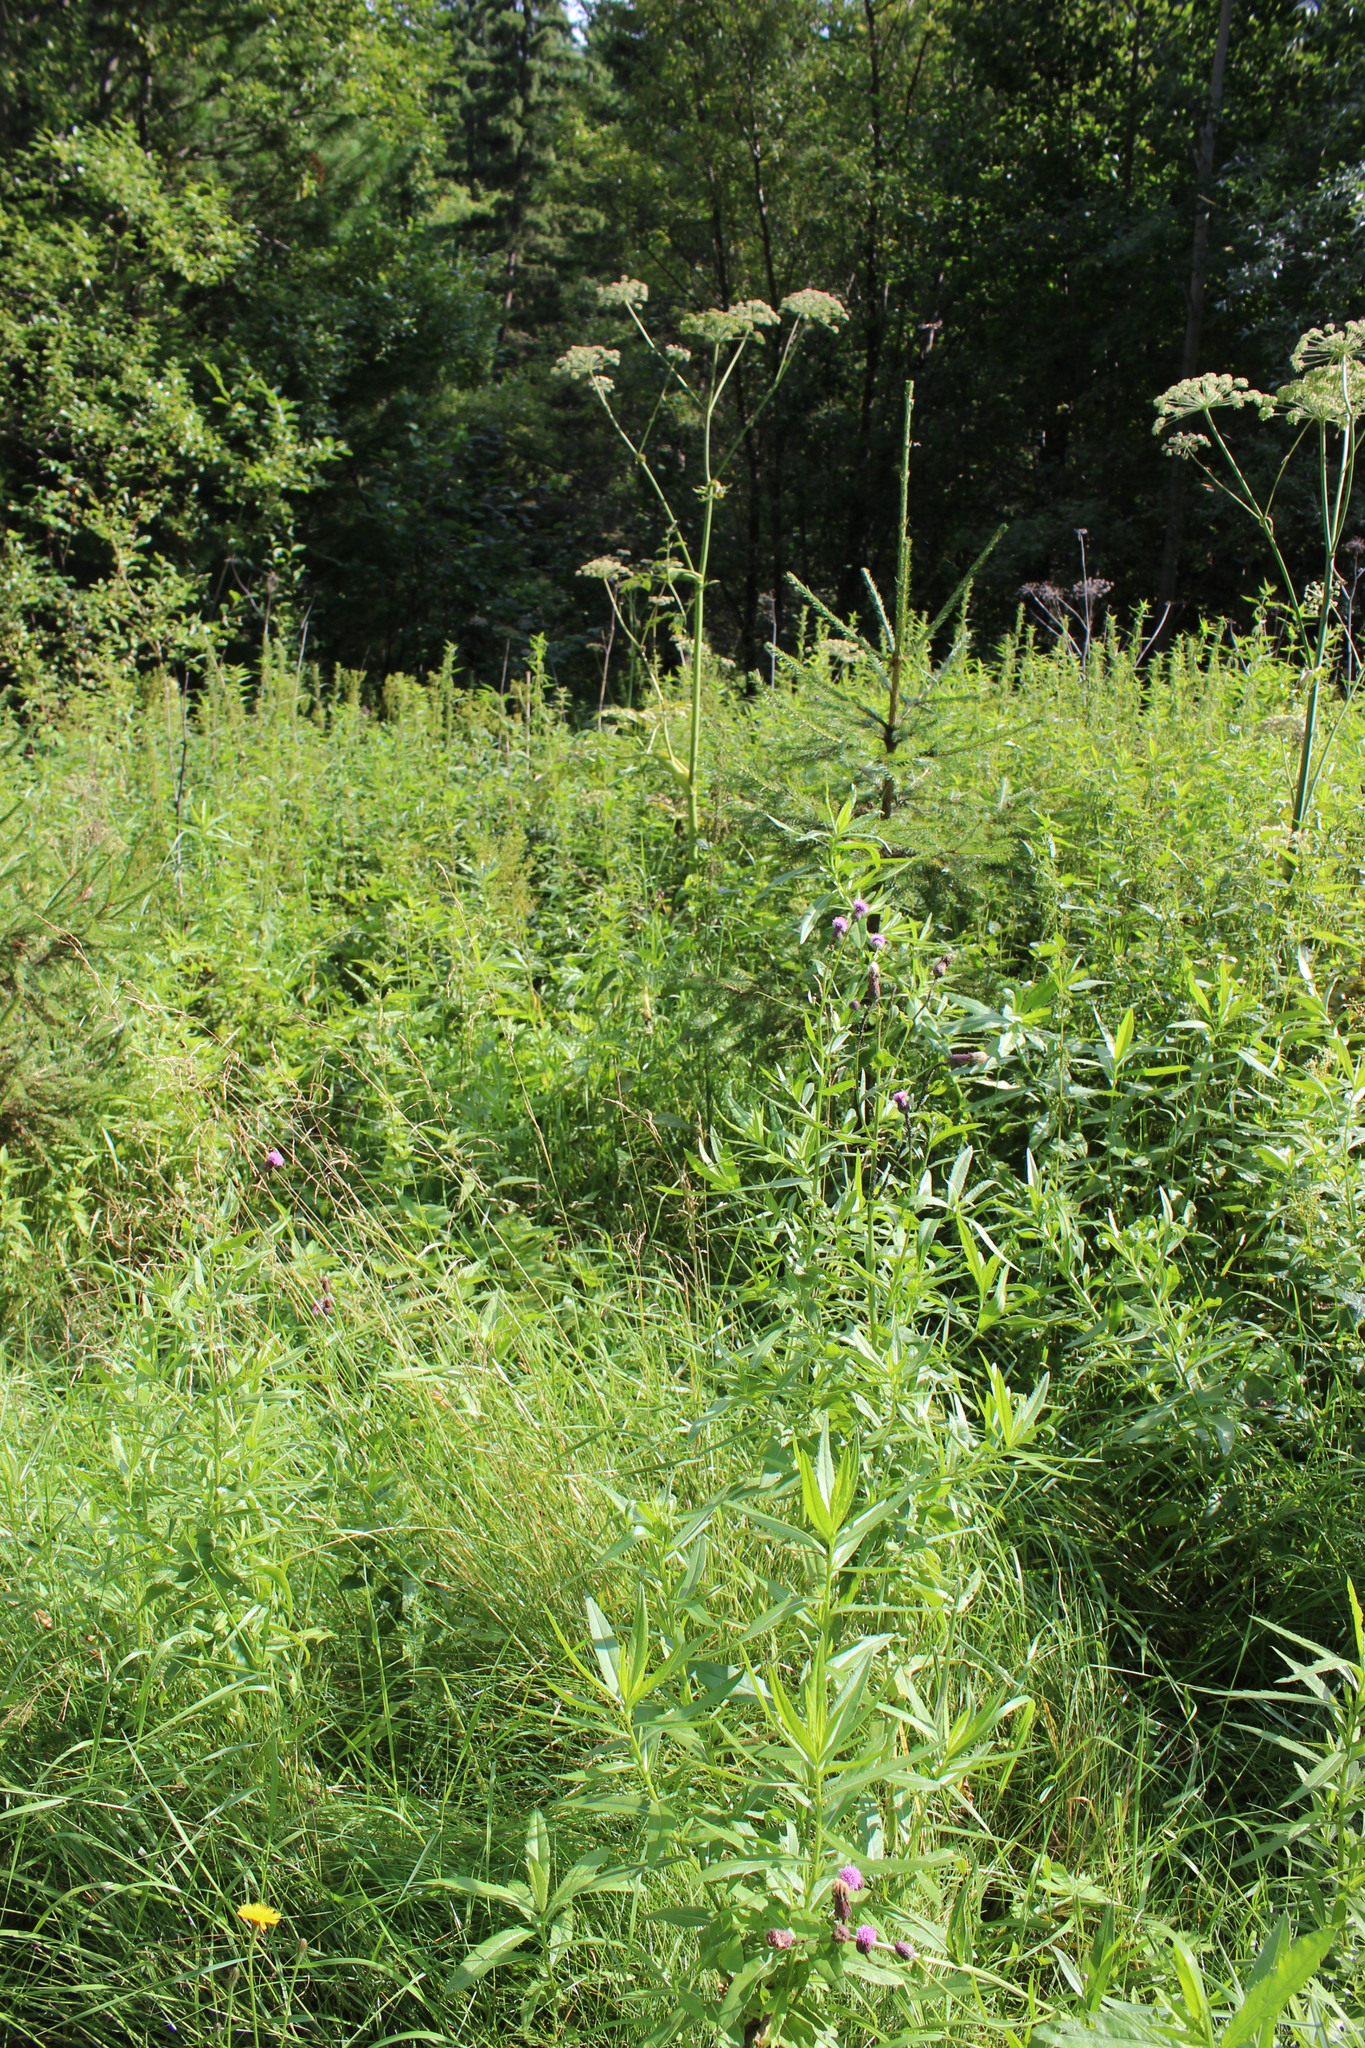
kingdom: Plantae
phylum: Tracheophyta
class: Magnoliopsida
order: Apiales
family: Apiaceae
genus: Heracleum
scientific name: Heracleum sphondylium
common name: Hogweed
